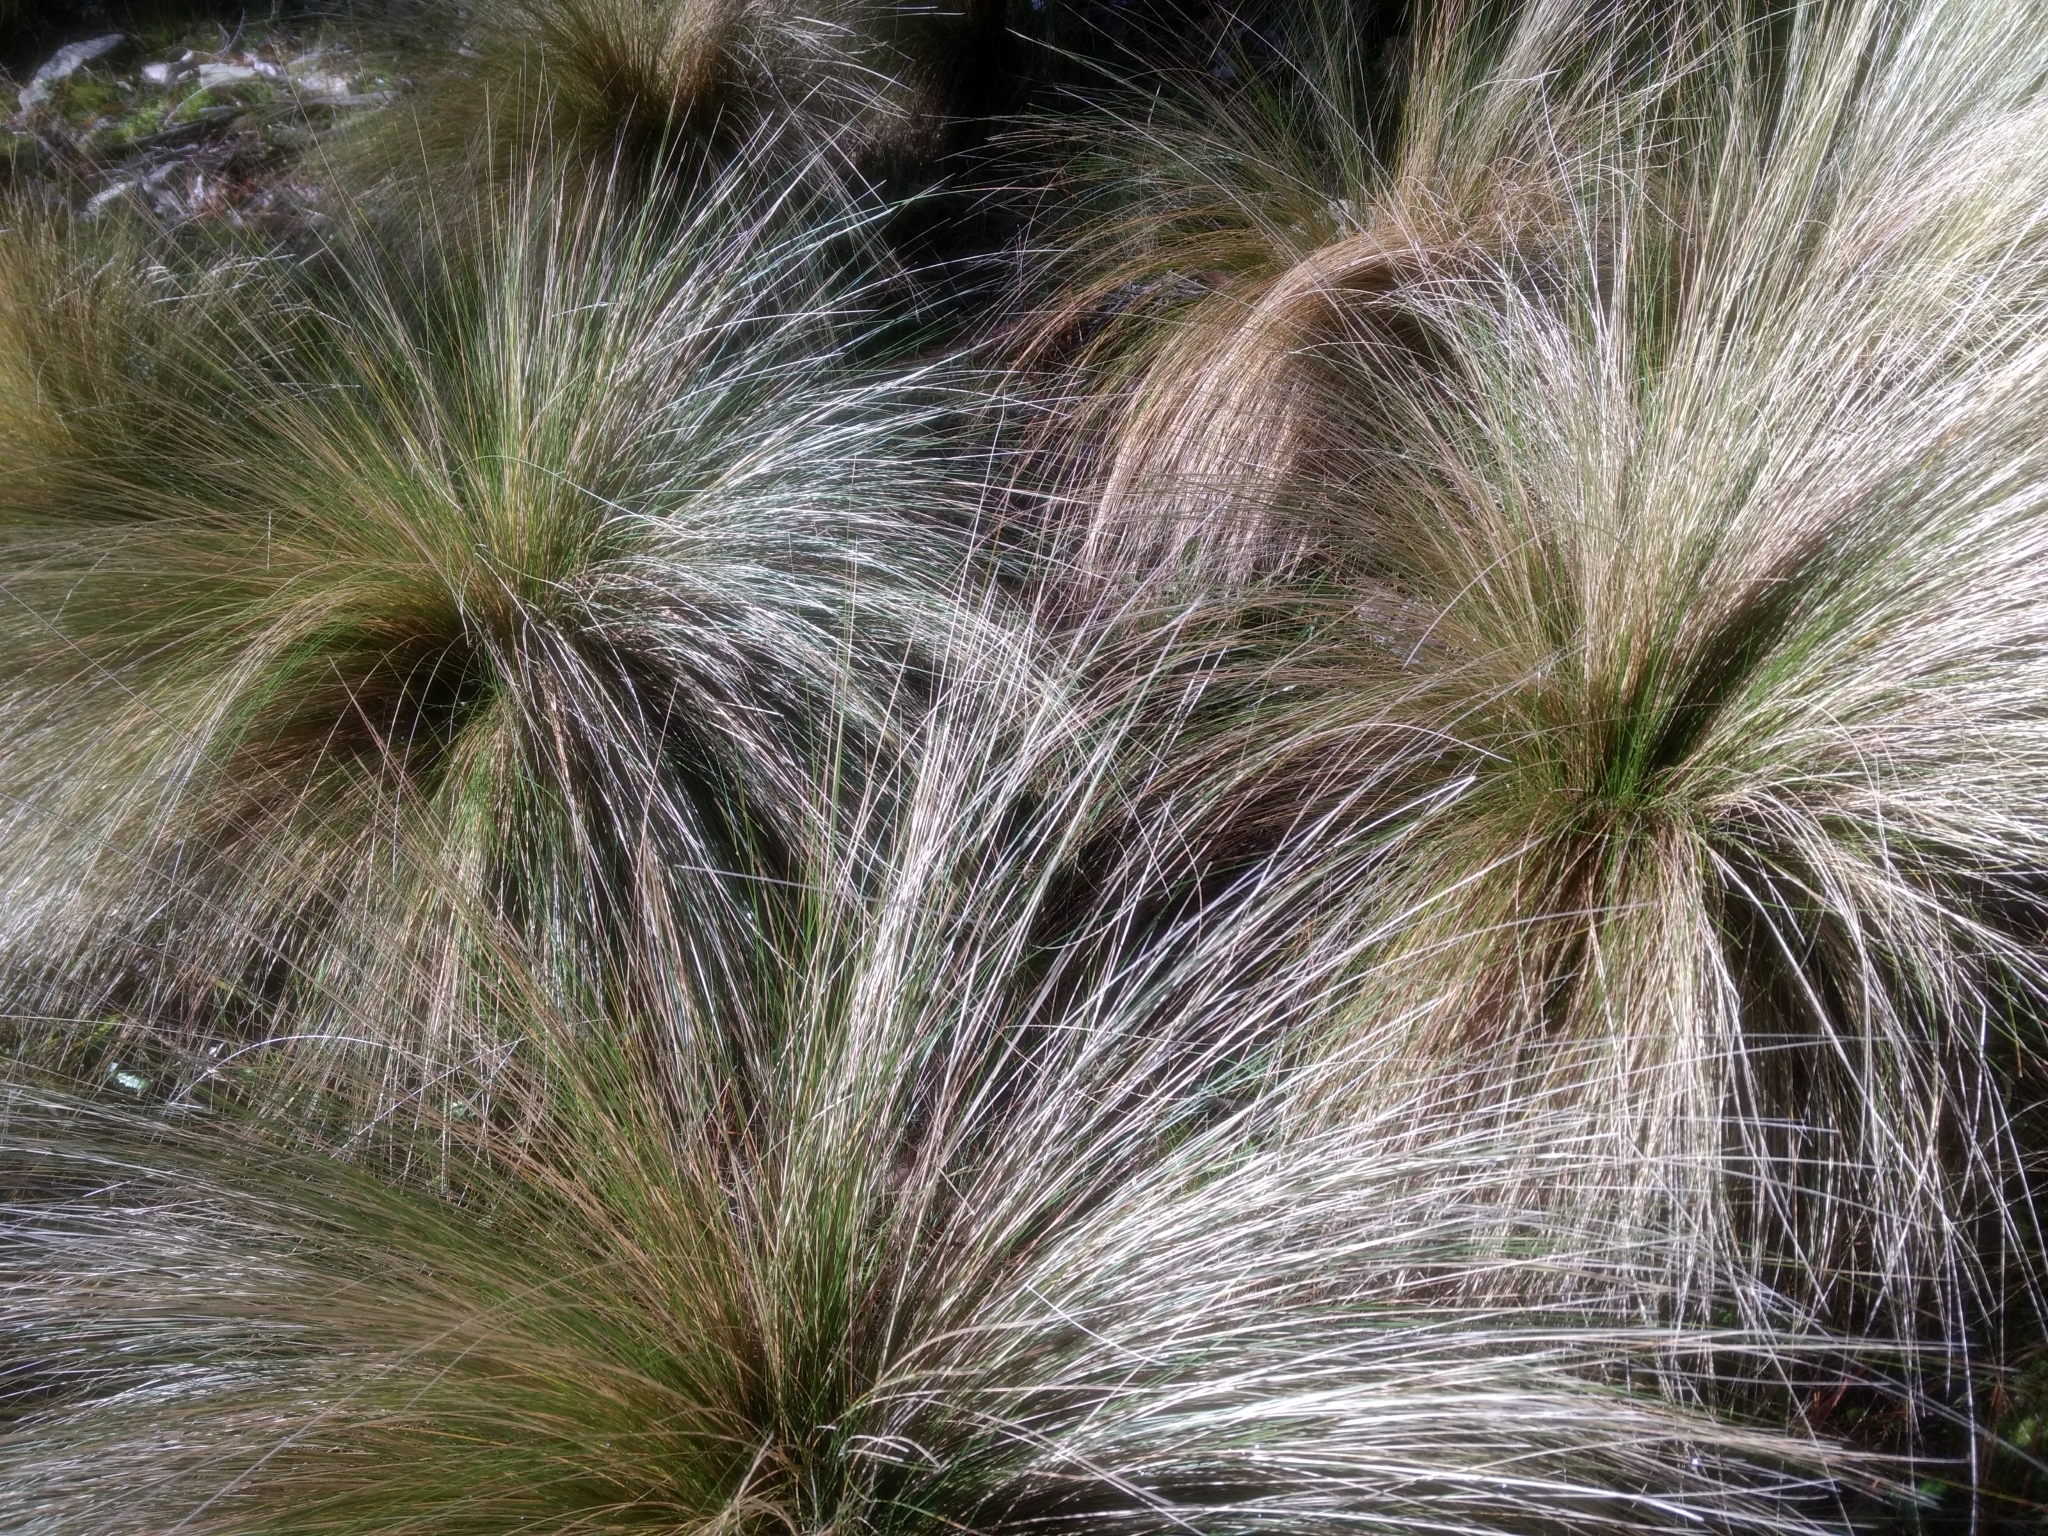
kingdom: Plantae
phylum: Tracheophyta
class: Liliopsida
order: Poales
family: Poaceae
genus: Nassella
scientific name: Nassella trichotoma
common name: Serrated tussock grass
